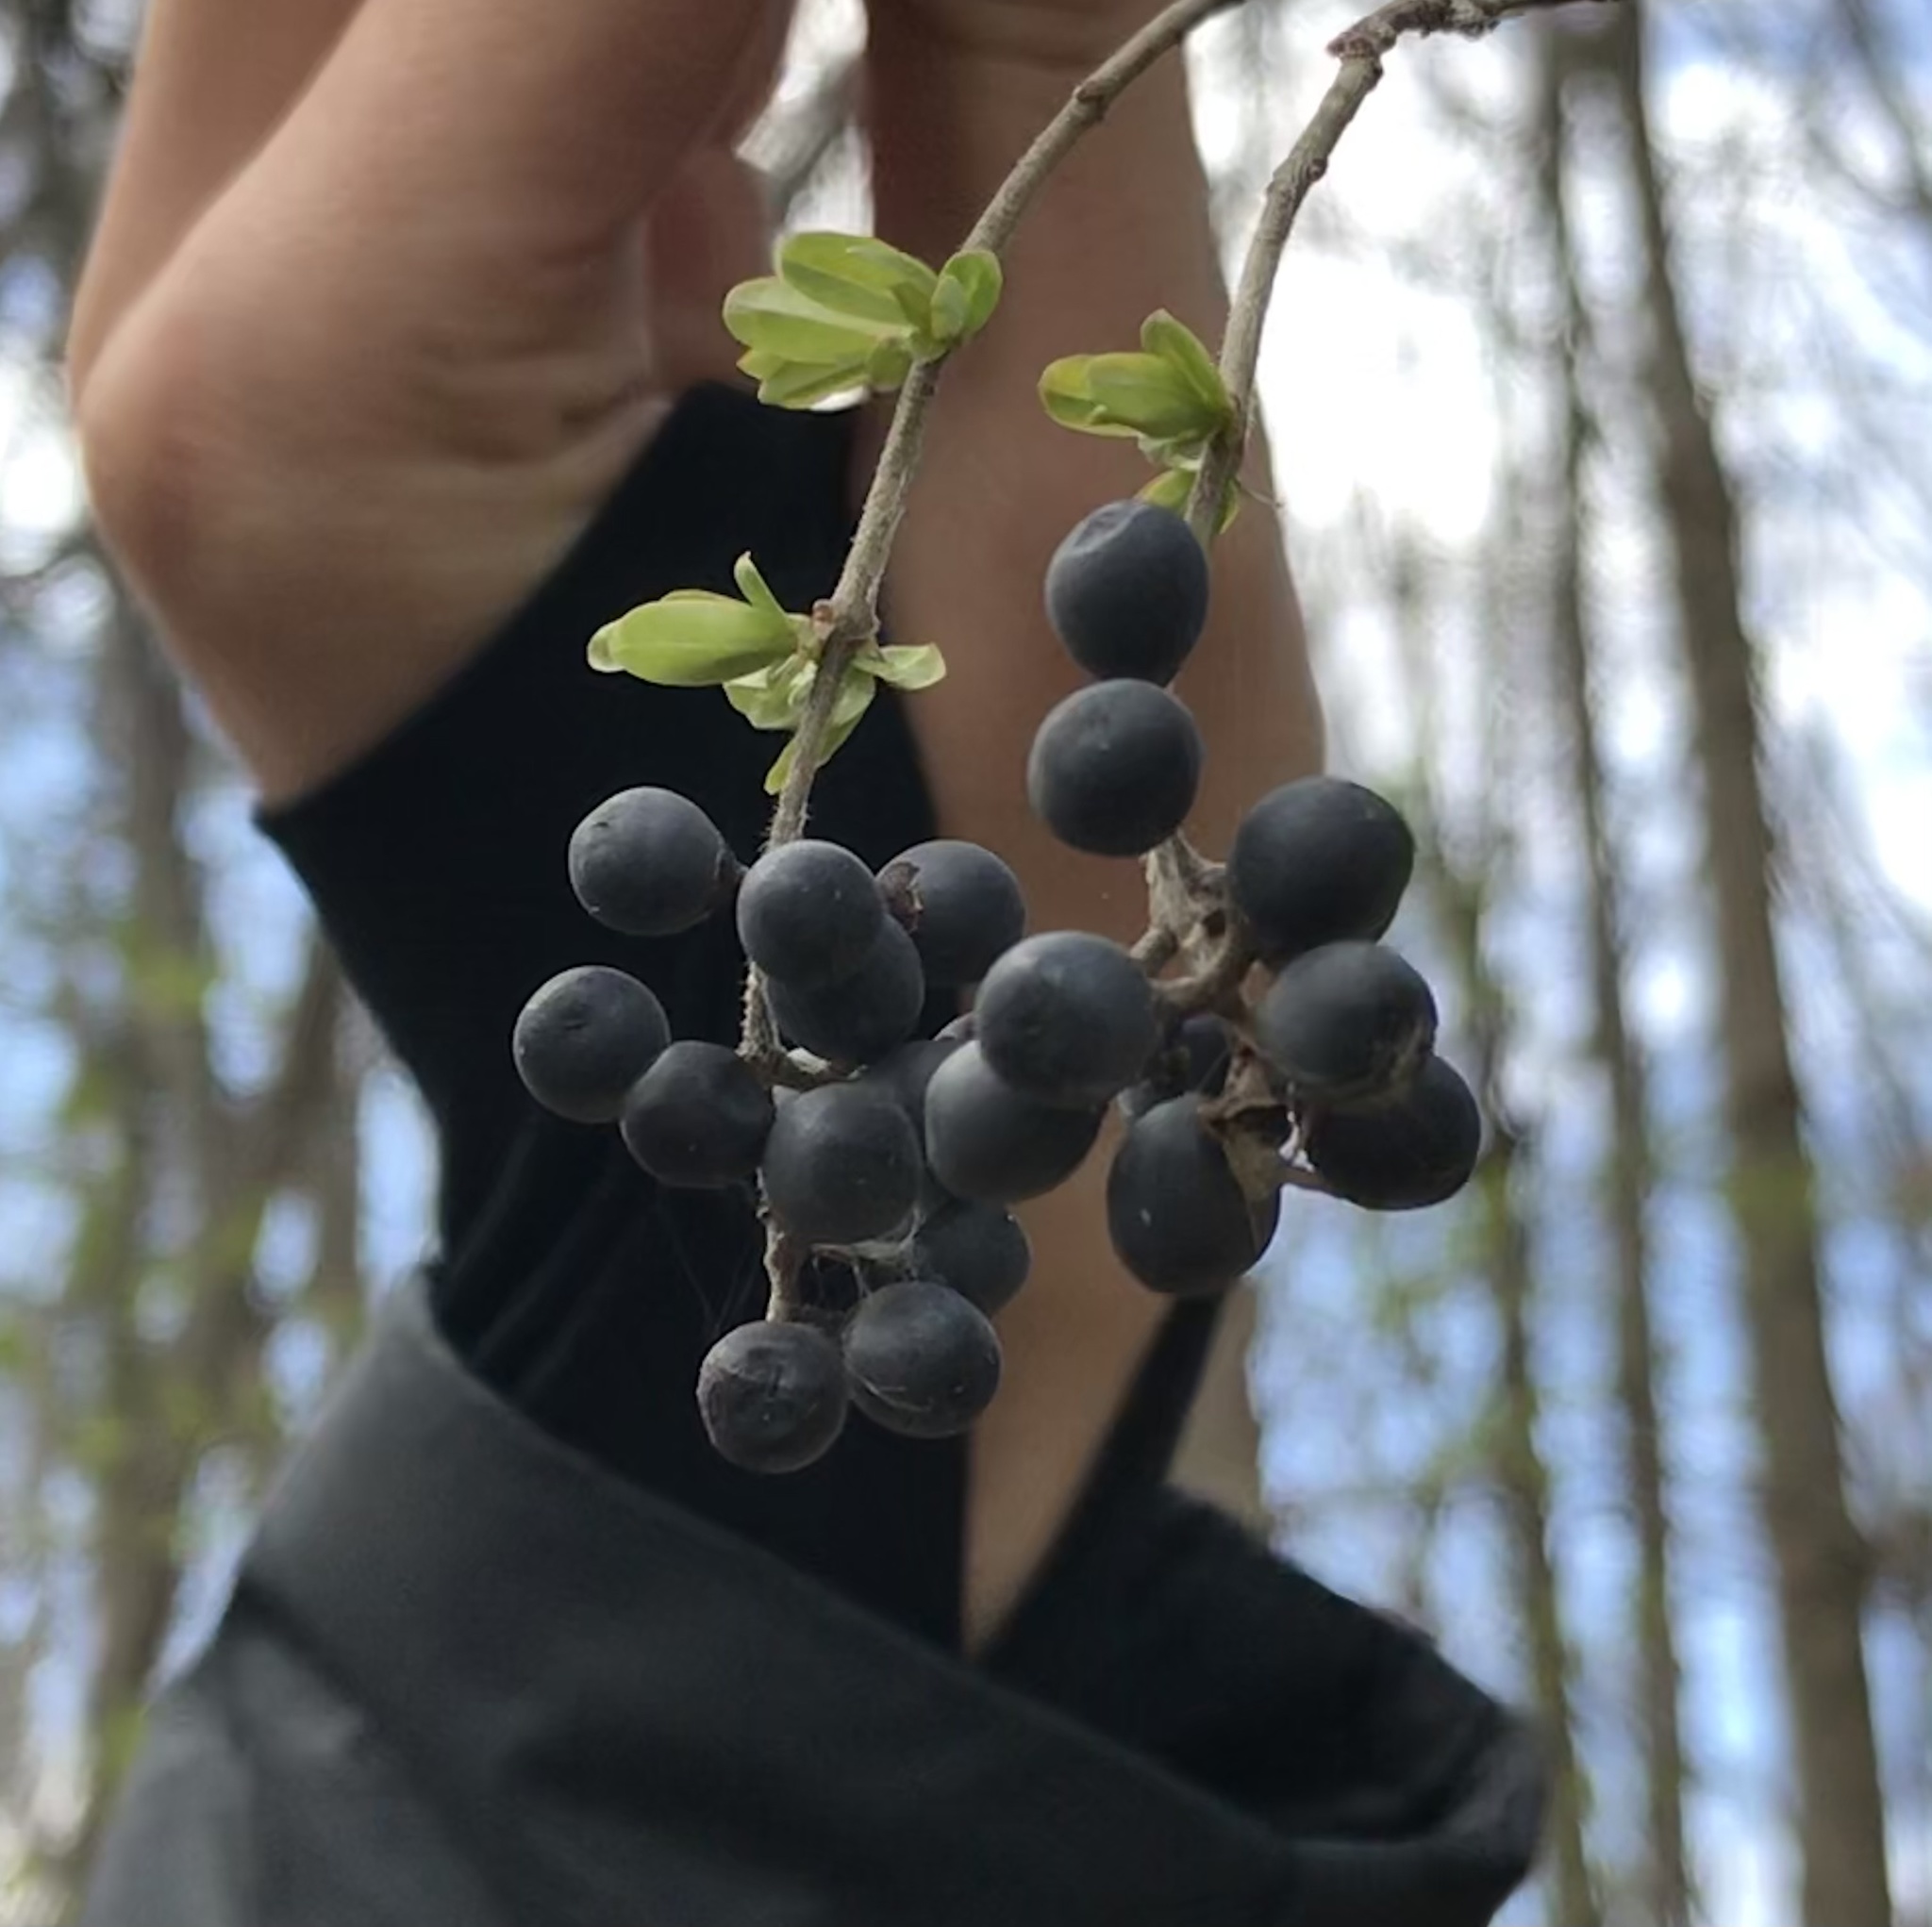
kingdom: Plantae
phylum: Tracheophyta
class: Magnoliopsida
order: Lamiales
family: Oleaceae
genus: Ligustrum
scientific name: Ligustrum obtusifolium
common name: Border privet
